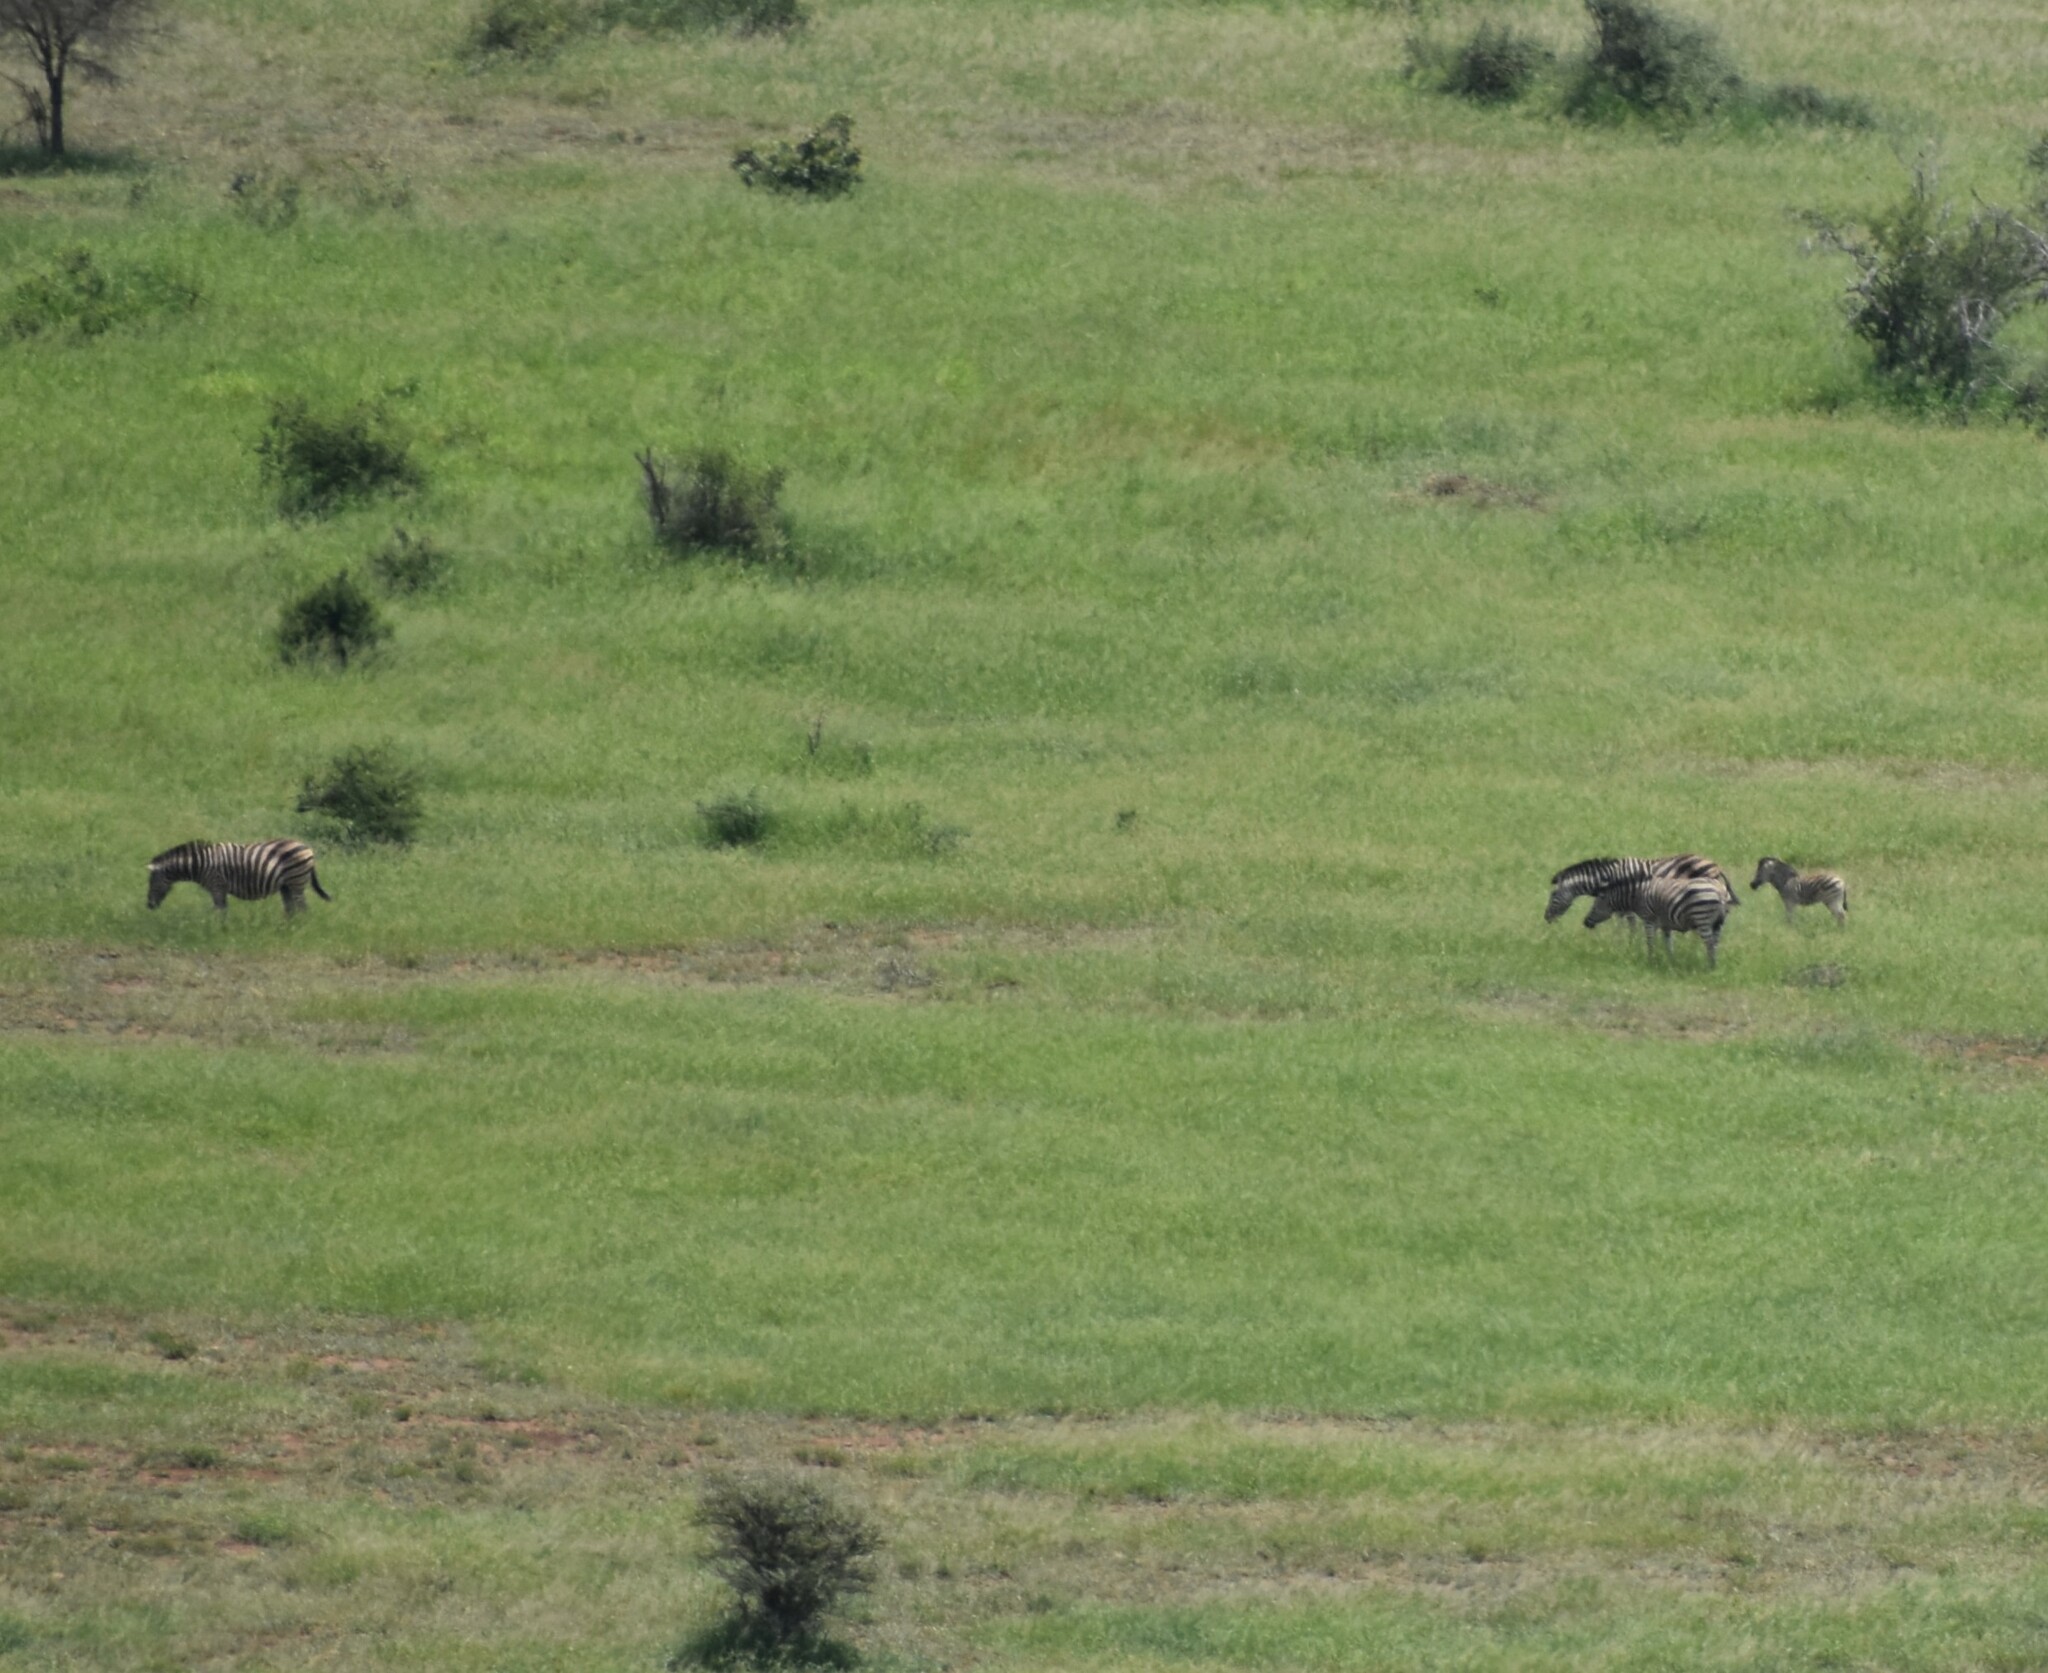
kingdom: Animalia
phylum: Chordata
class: Mammalia
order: Perissodactyla
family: Equidae
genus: Equus
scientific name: Equus quagga
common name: Plains zebra
